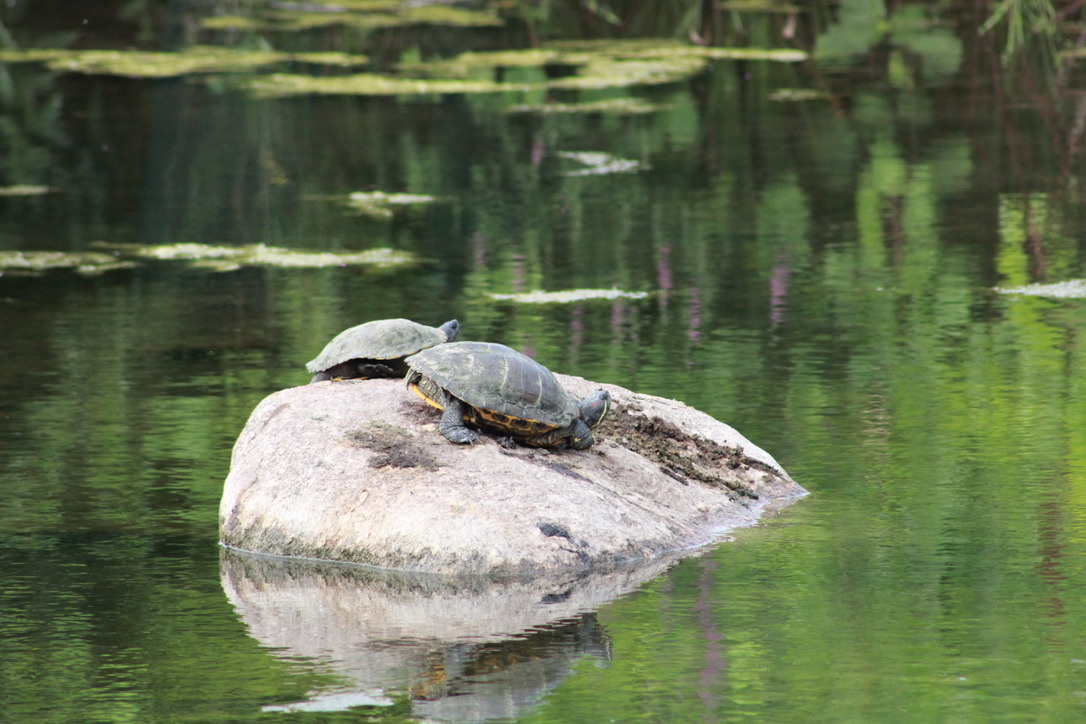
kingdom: Animalia
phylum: Chordata
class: Testudines
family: Emydidae
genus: Trachemys
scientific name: Trachemys scripta
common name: Slider
